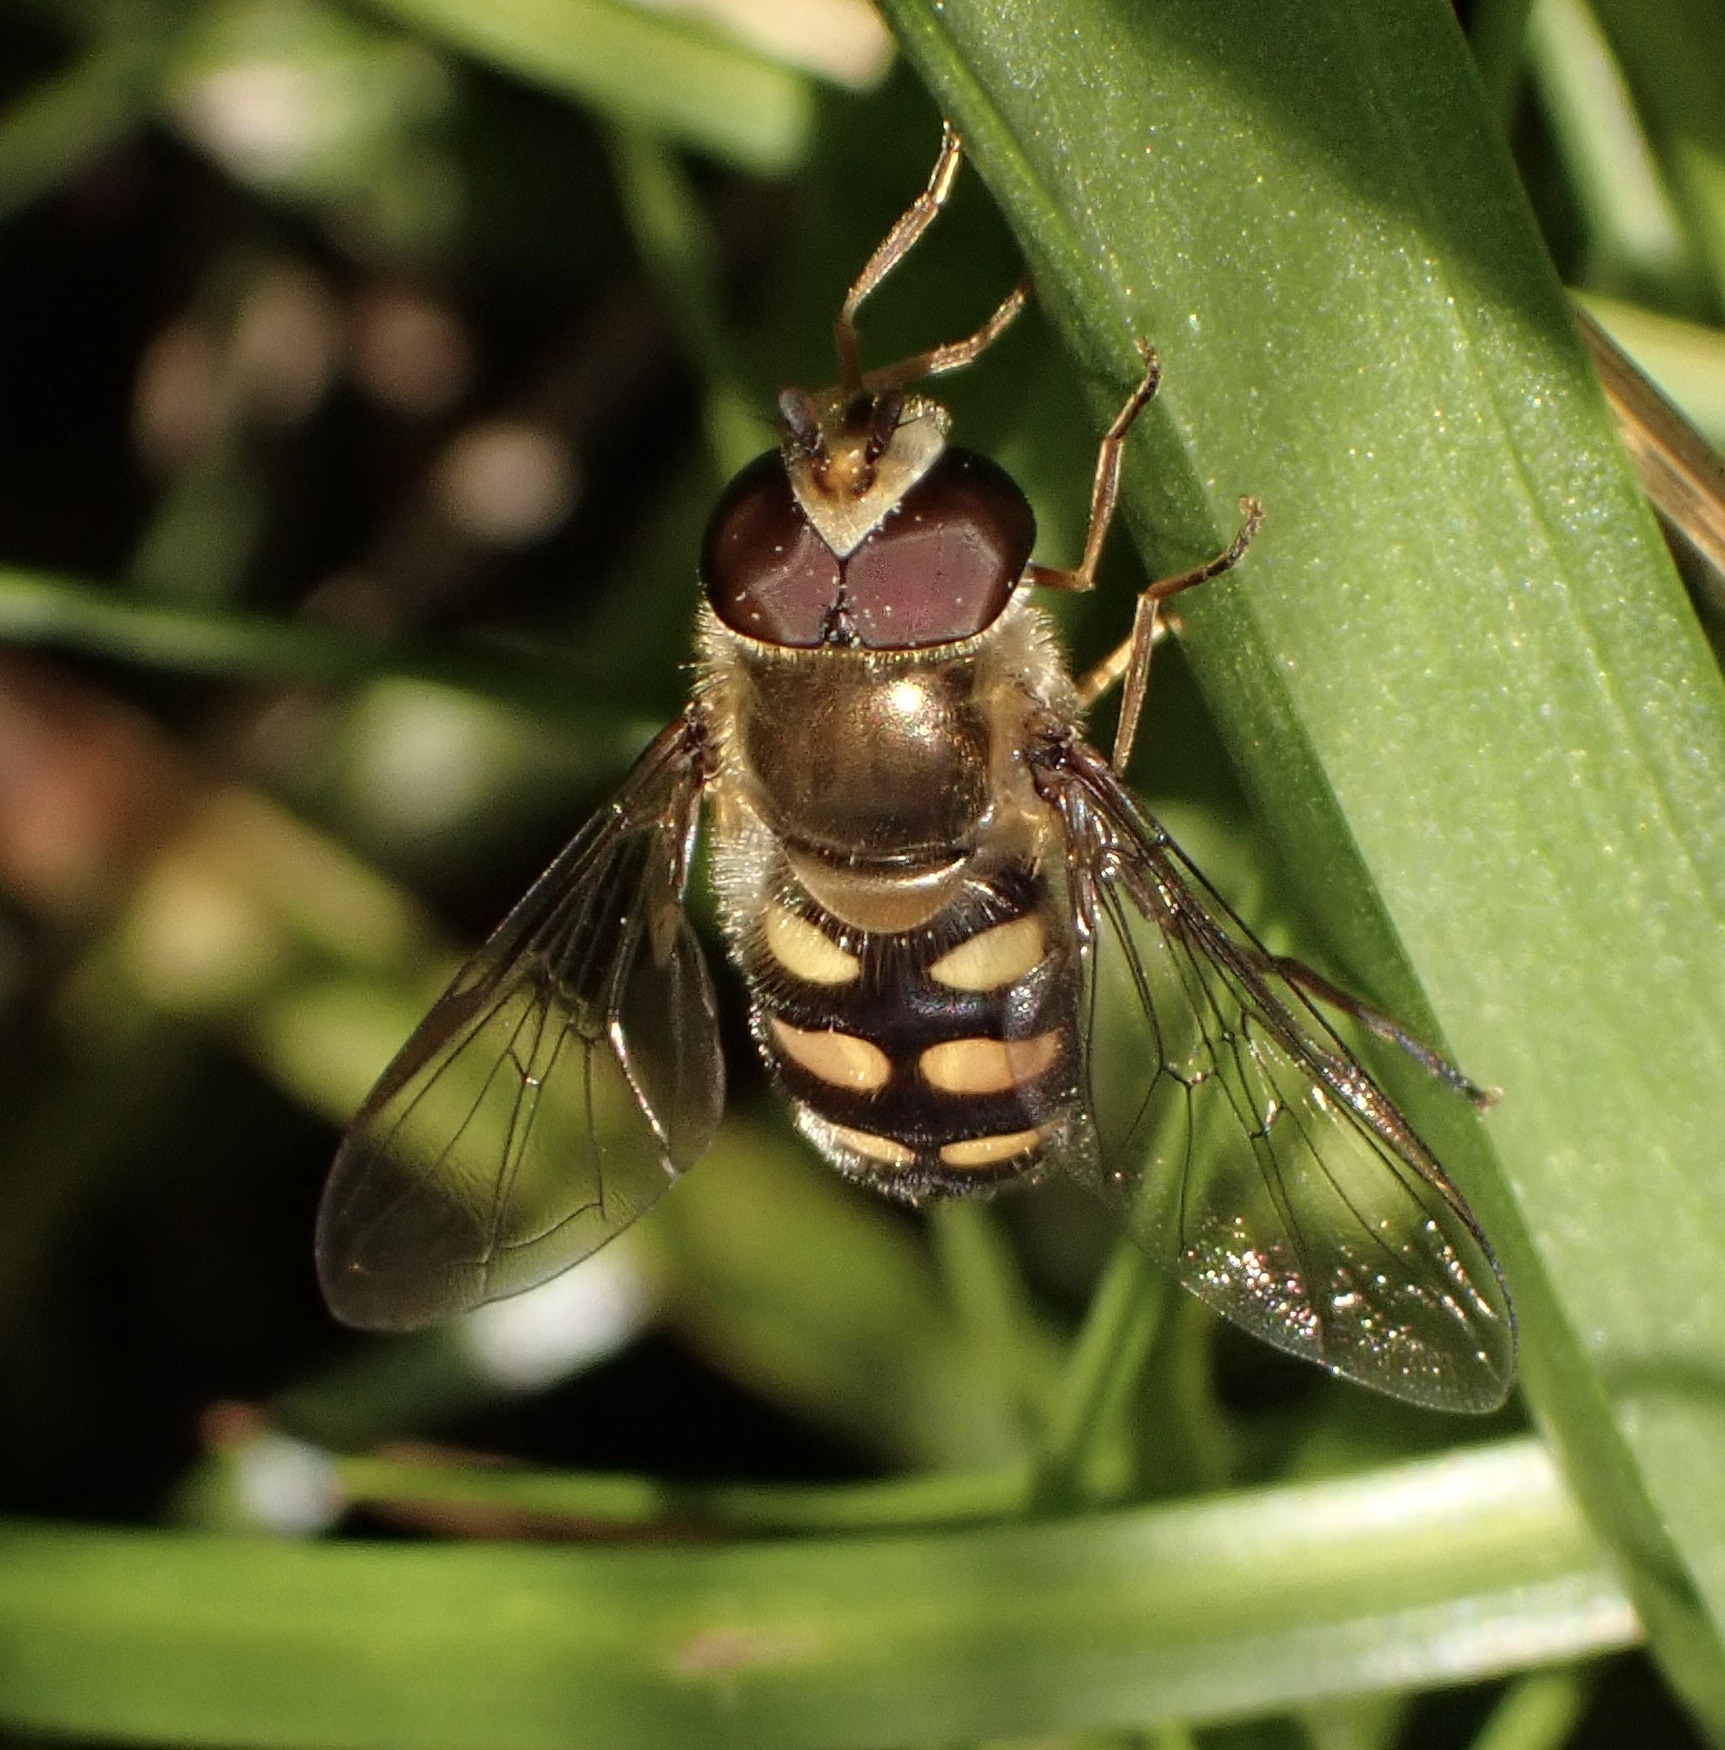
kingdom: Animalia
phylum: Arthropoda
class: Insecta
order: Diptera
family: Syrphidae
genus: Eupeodes
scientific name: Eupeodes
